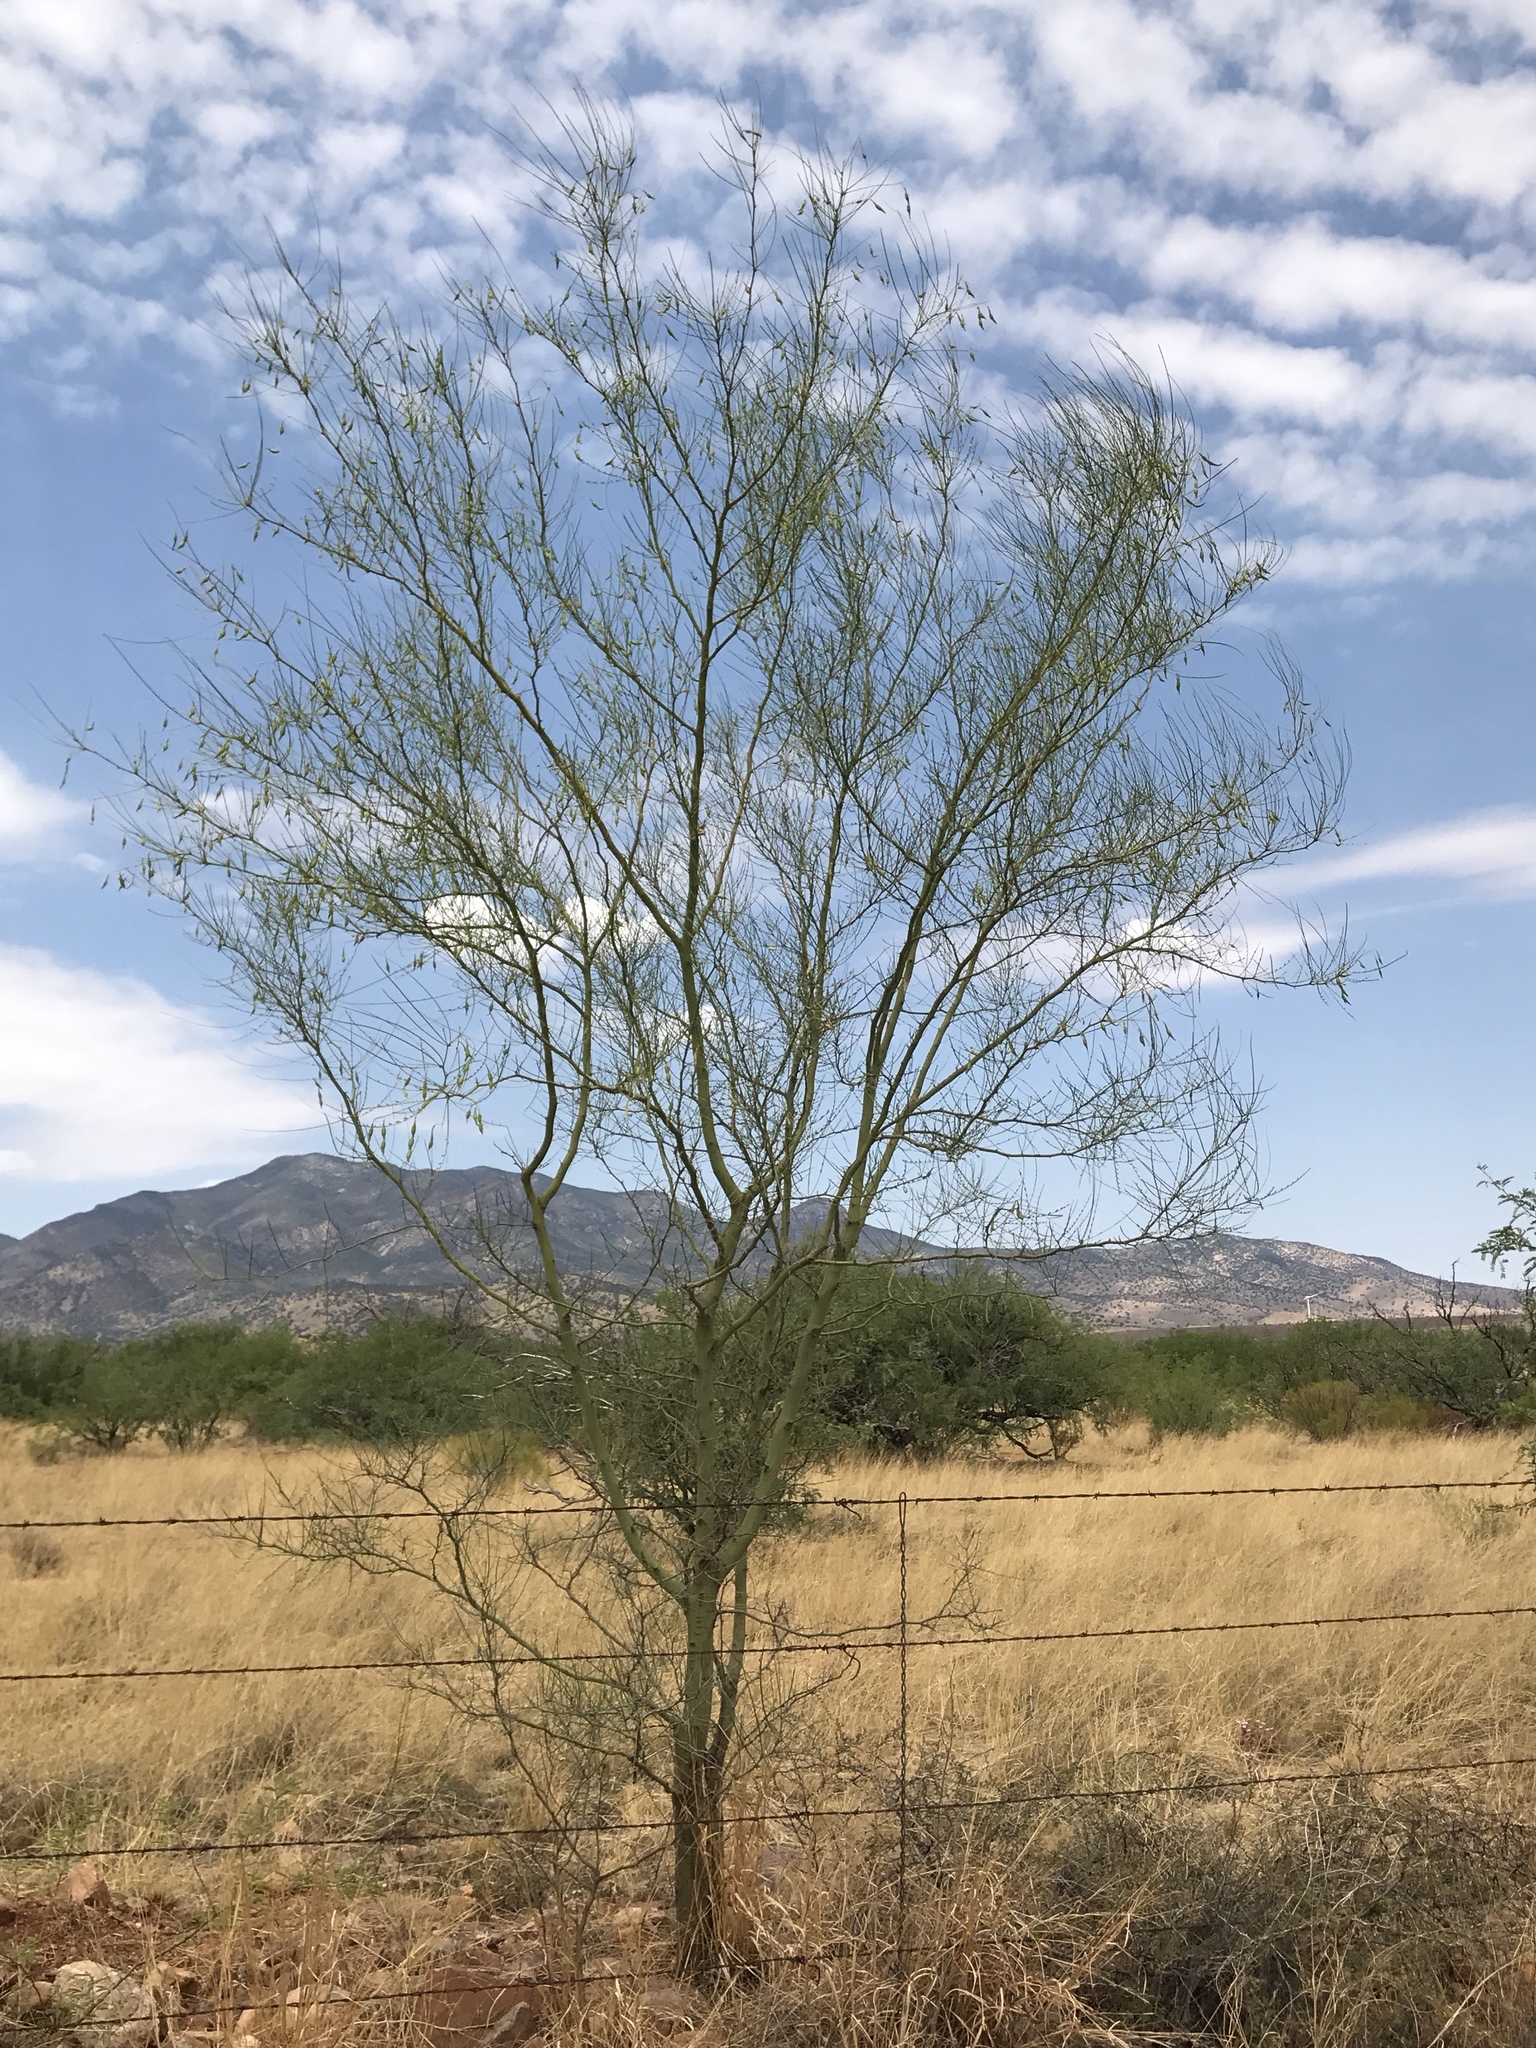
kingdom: Plantae
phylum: Tracheophyta
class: Magnoliopsida
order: Fabales
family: Fabaceae
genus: Parkinsonia
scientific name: Parkinsonia aculeata
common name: Jerusalem thorn
